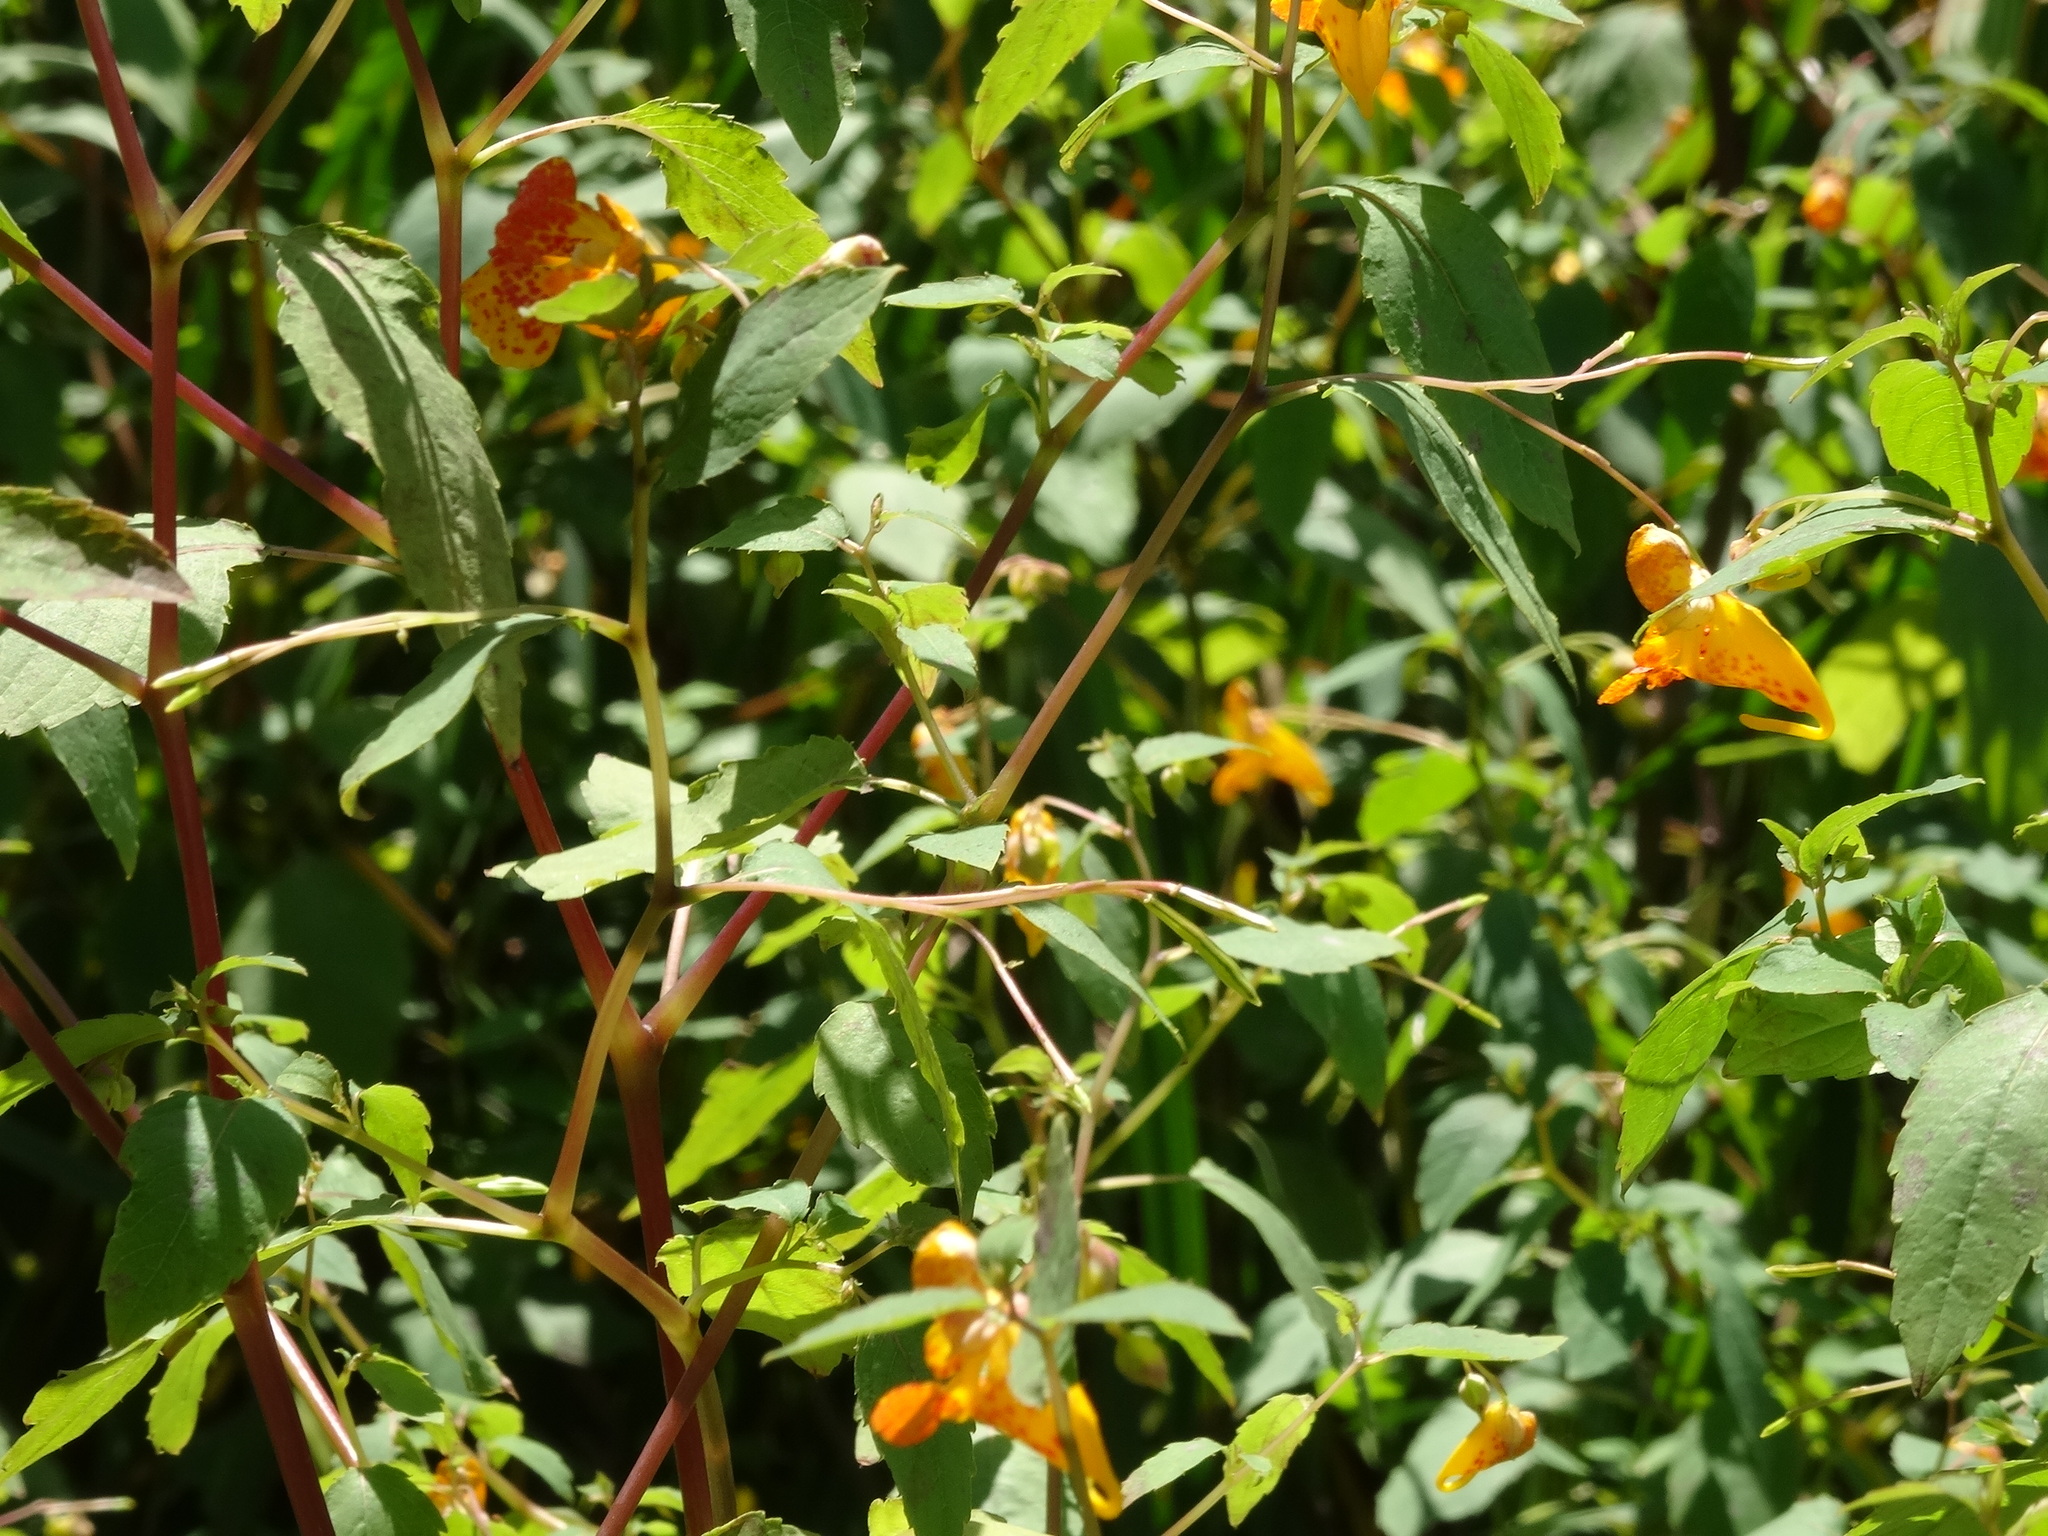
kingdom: Plantae
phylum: Tracheophyta
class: Magnoliopsida
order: Ericales
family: Balsaminaceae
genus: Impatiens
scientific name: Impatiens capensis
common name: Orange balsam
